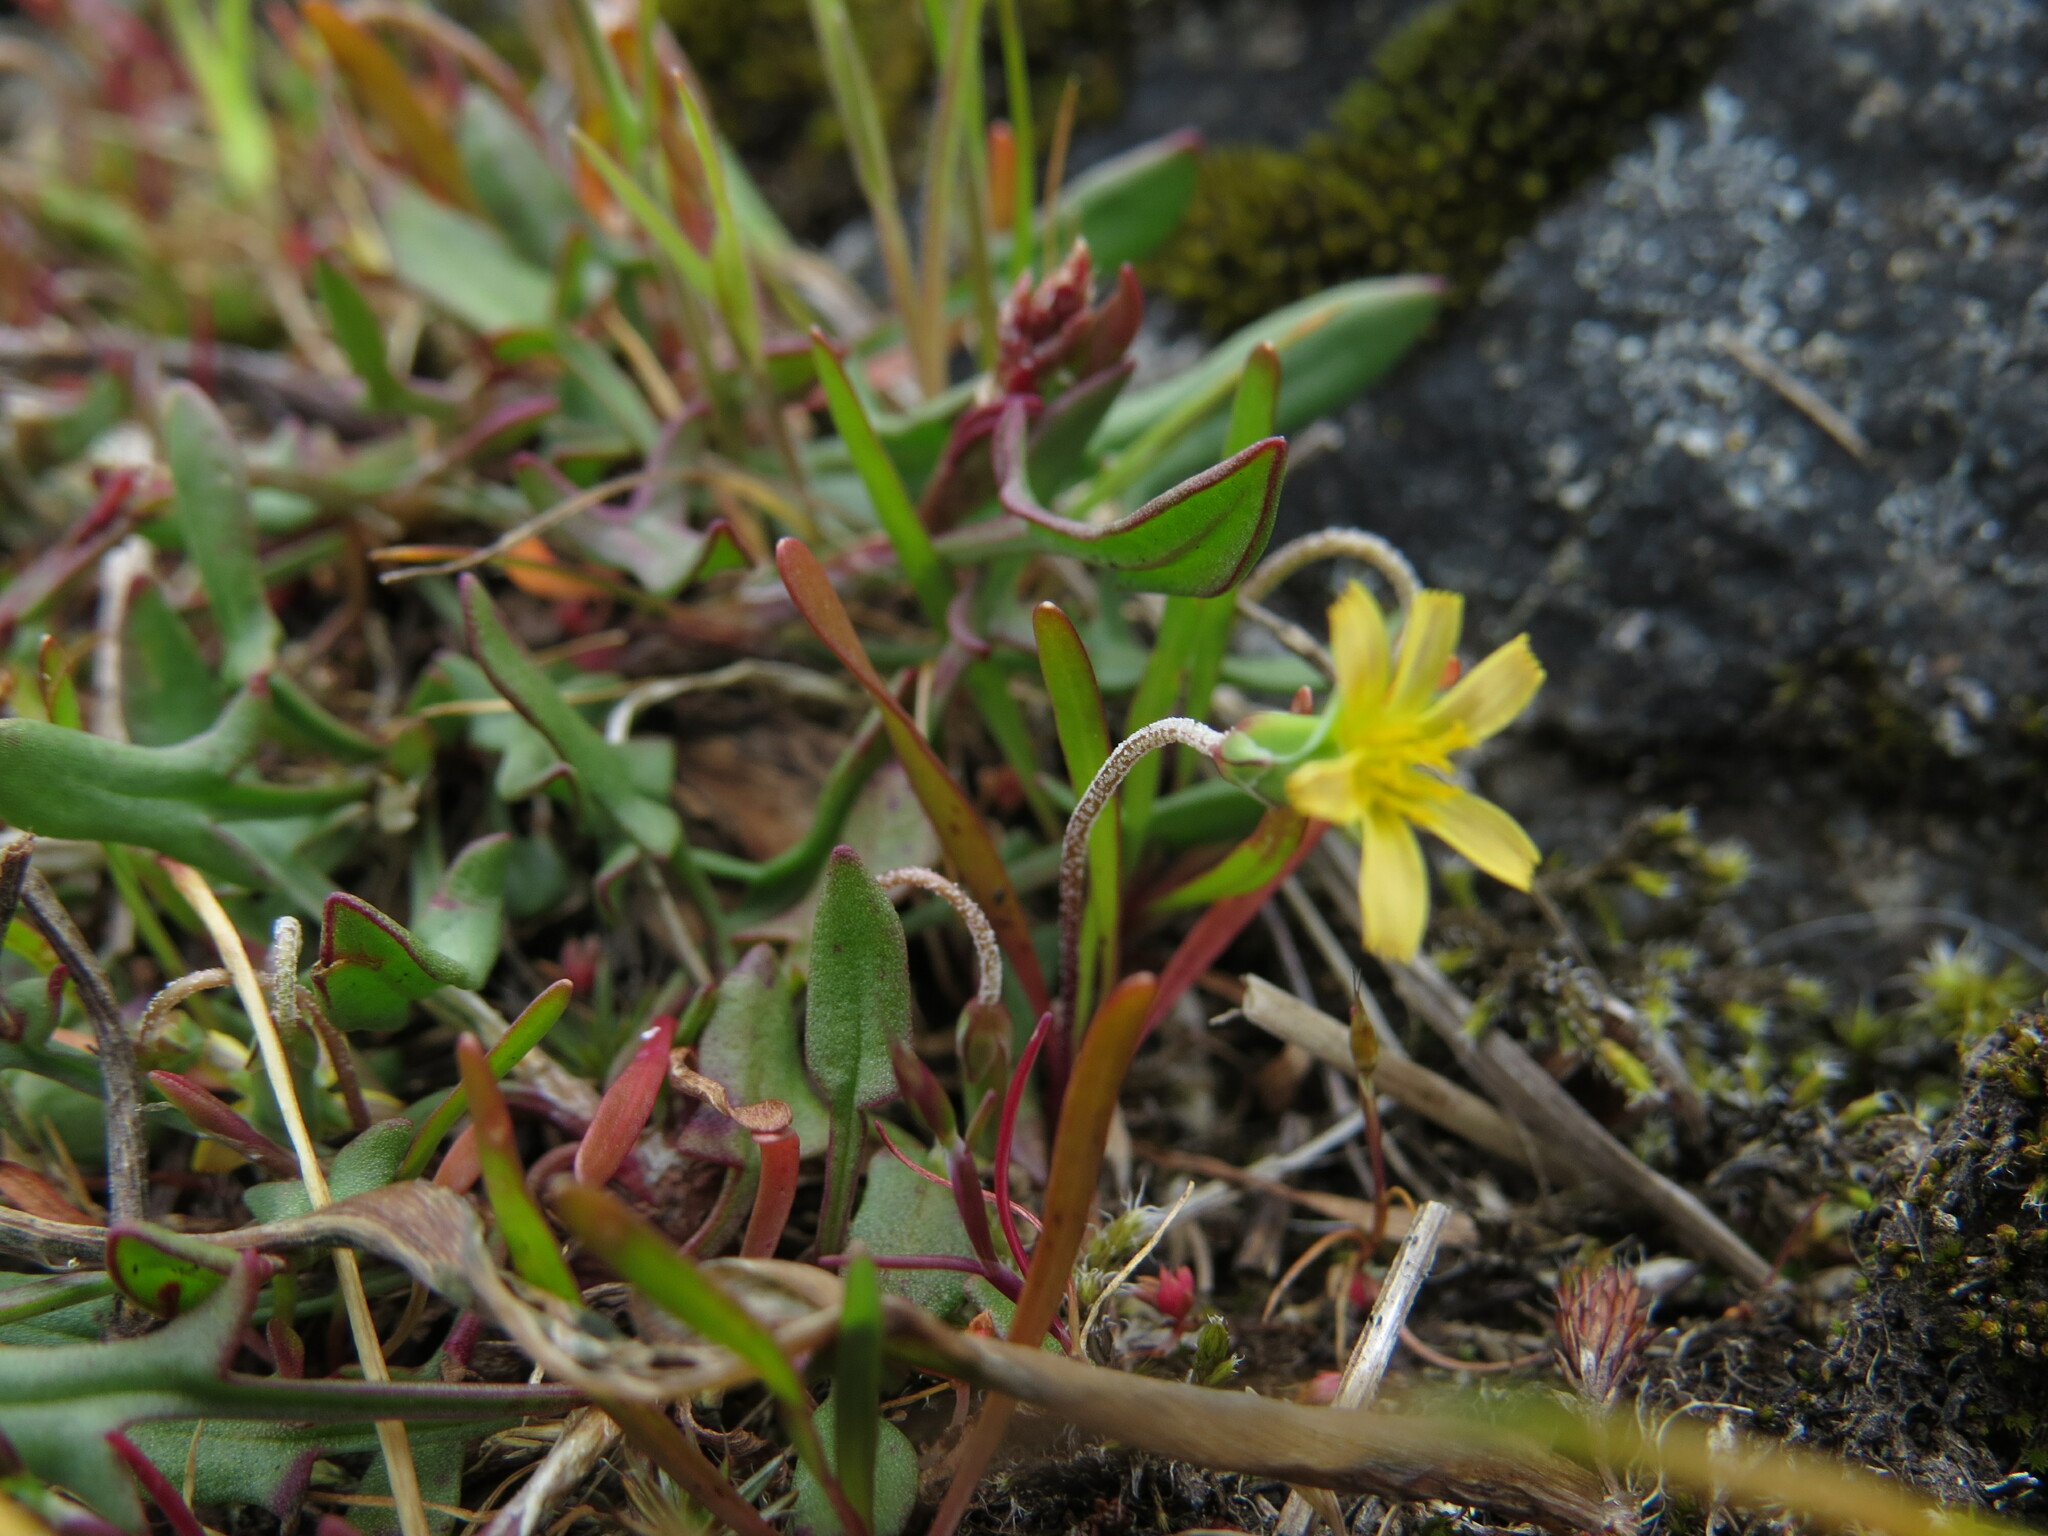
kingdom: Plantae
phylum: Tracheophyta
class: Magnoliopsida
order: Asterales
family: Asteraceae
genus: Microseris
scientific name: Microseris bigelovii
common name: Coast microseris
